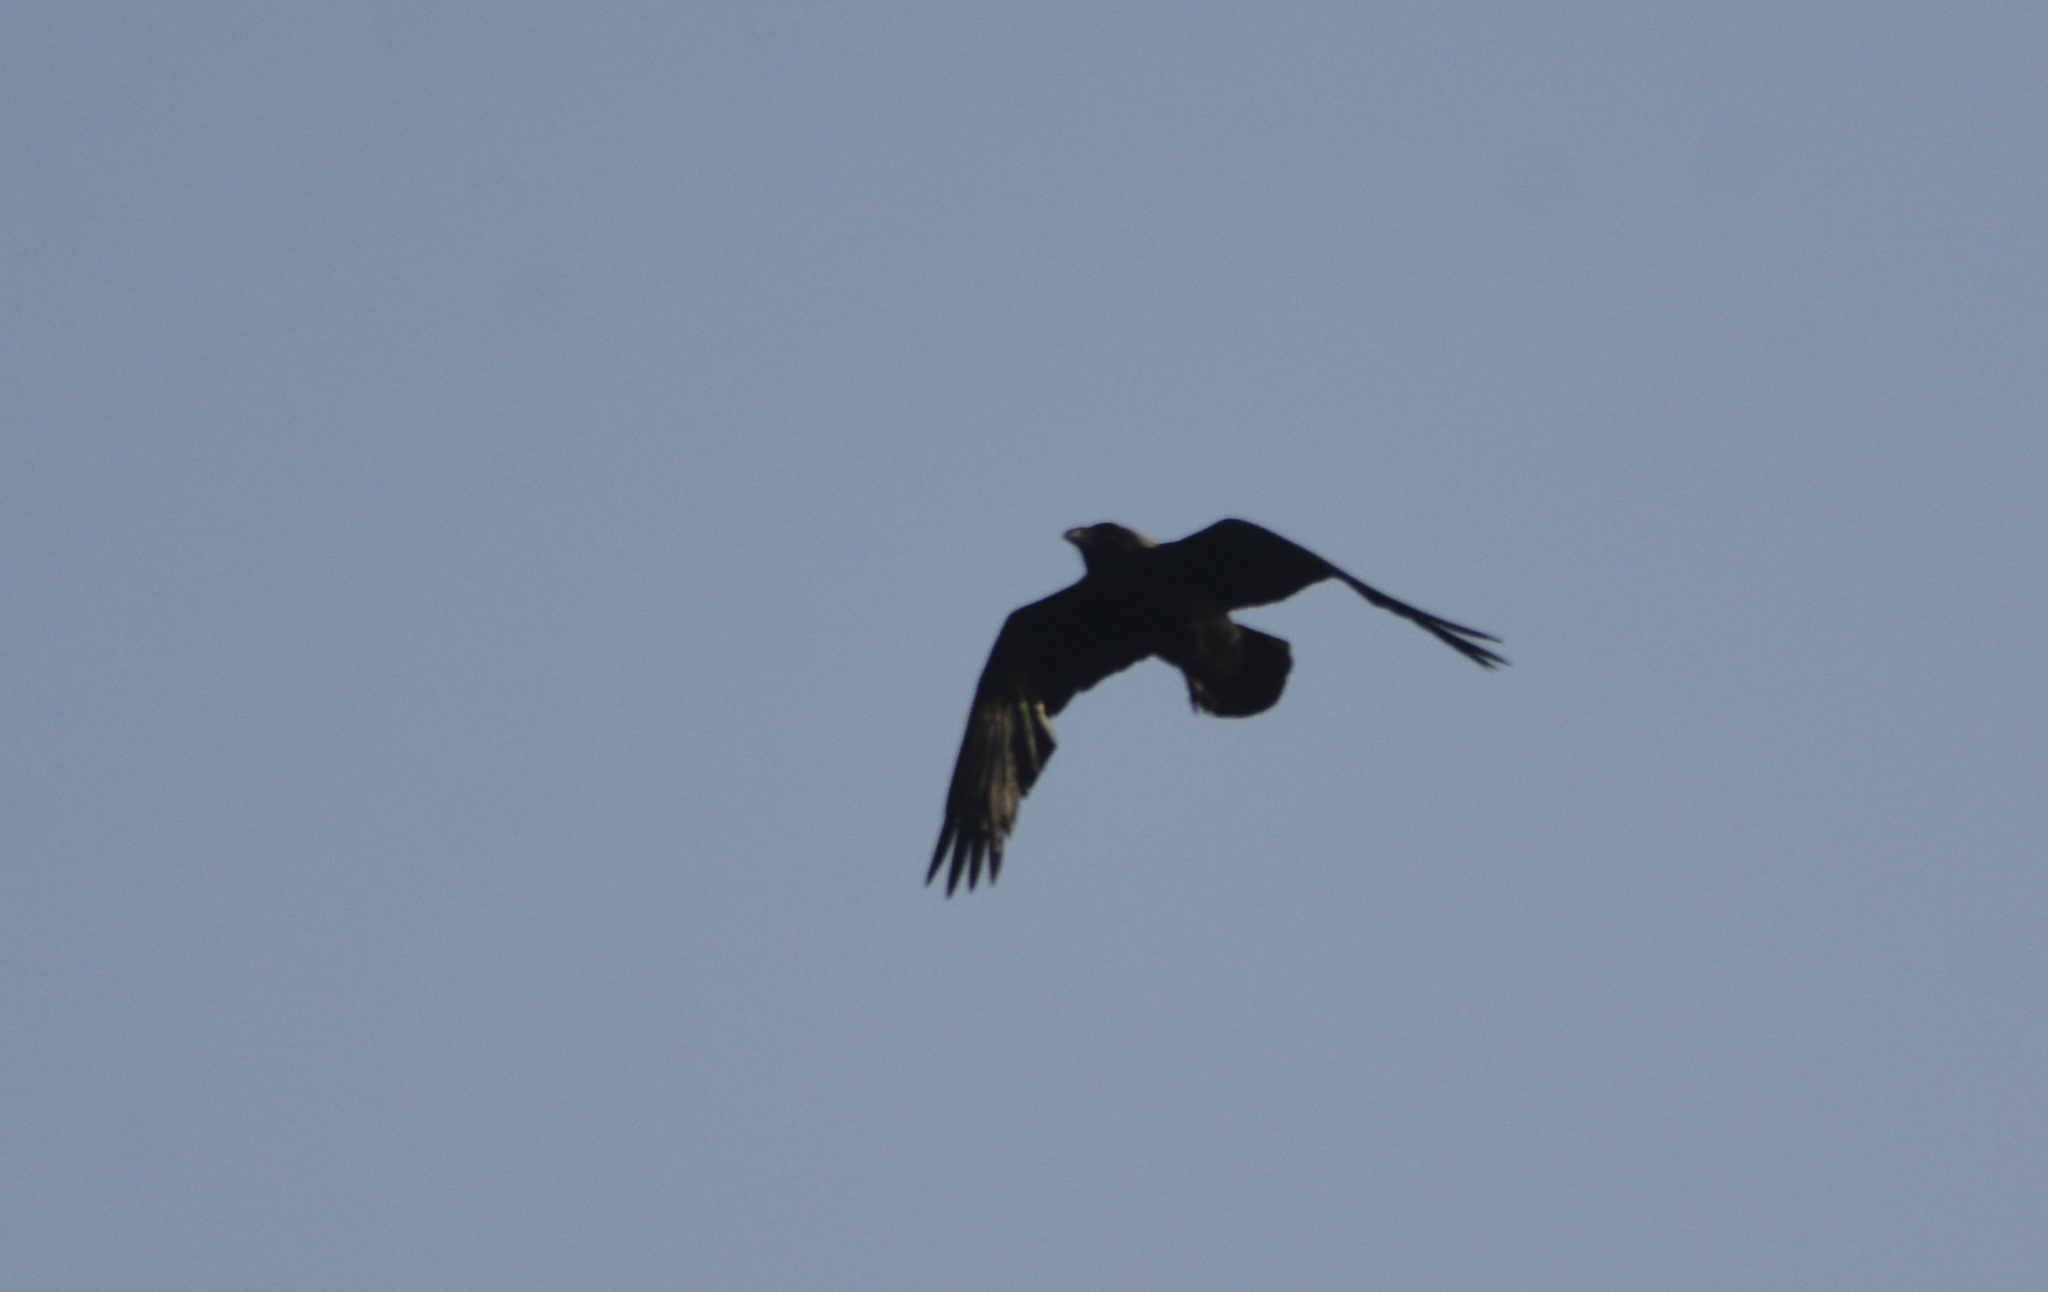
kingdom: Animalia
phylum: Chordata
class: Aves
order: Passeriformes
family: Corvidae
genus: Corvus
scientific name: Corvus corax
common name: Common raven
